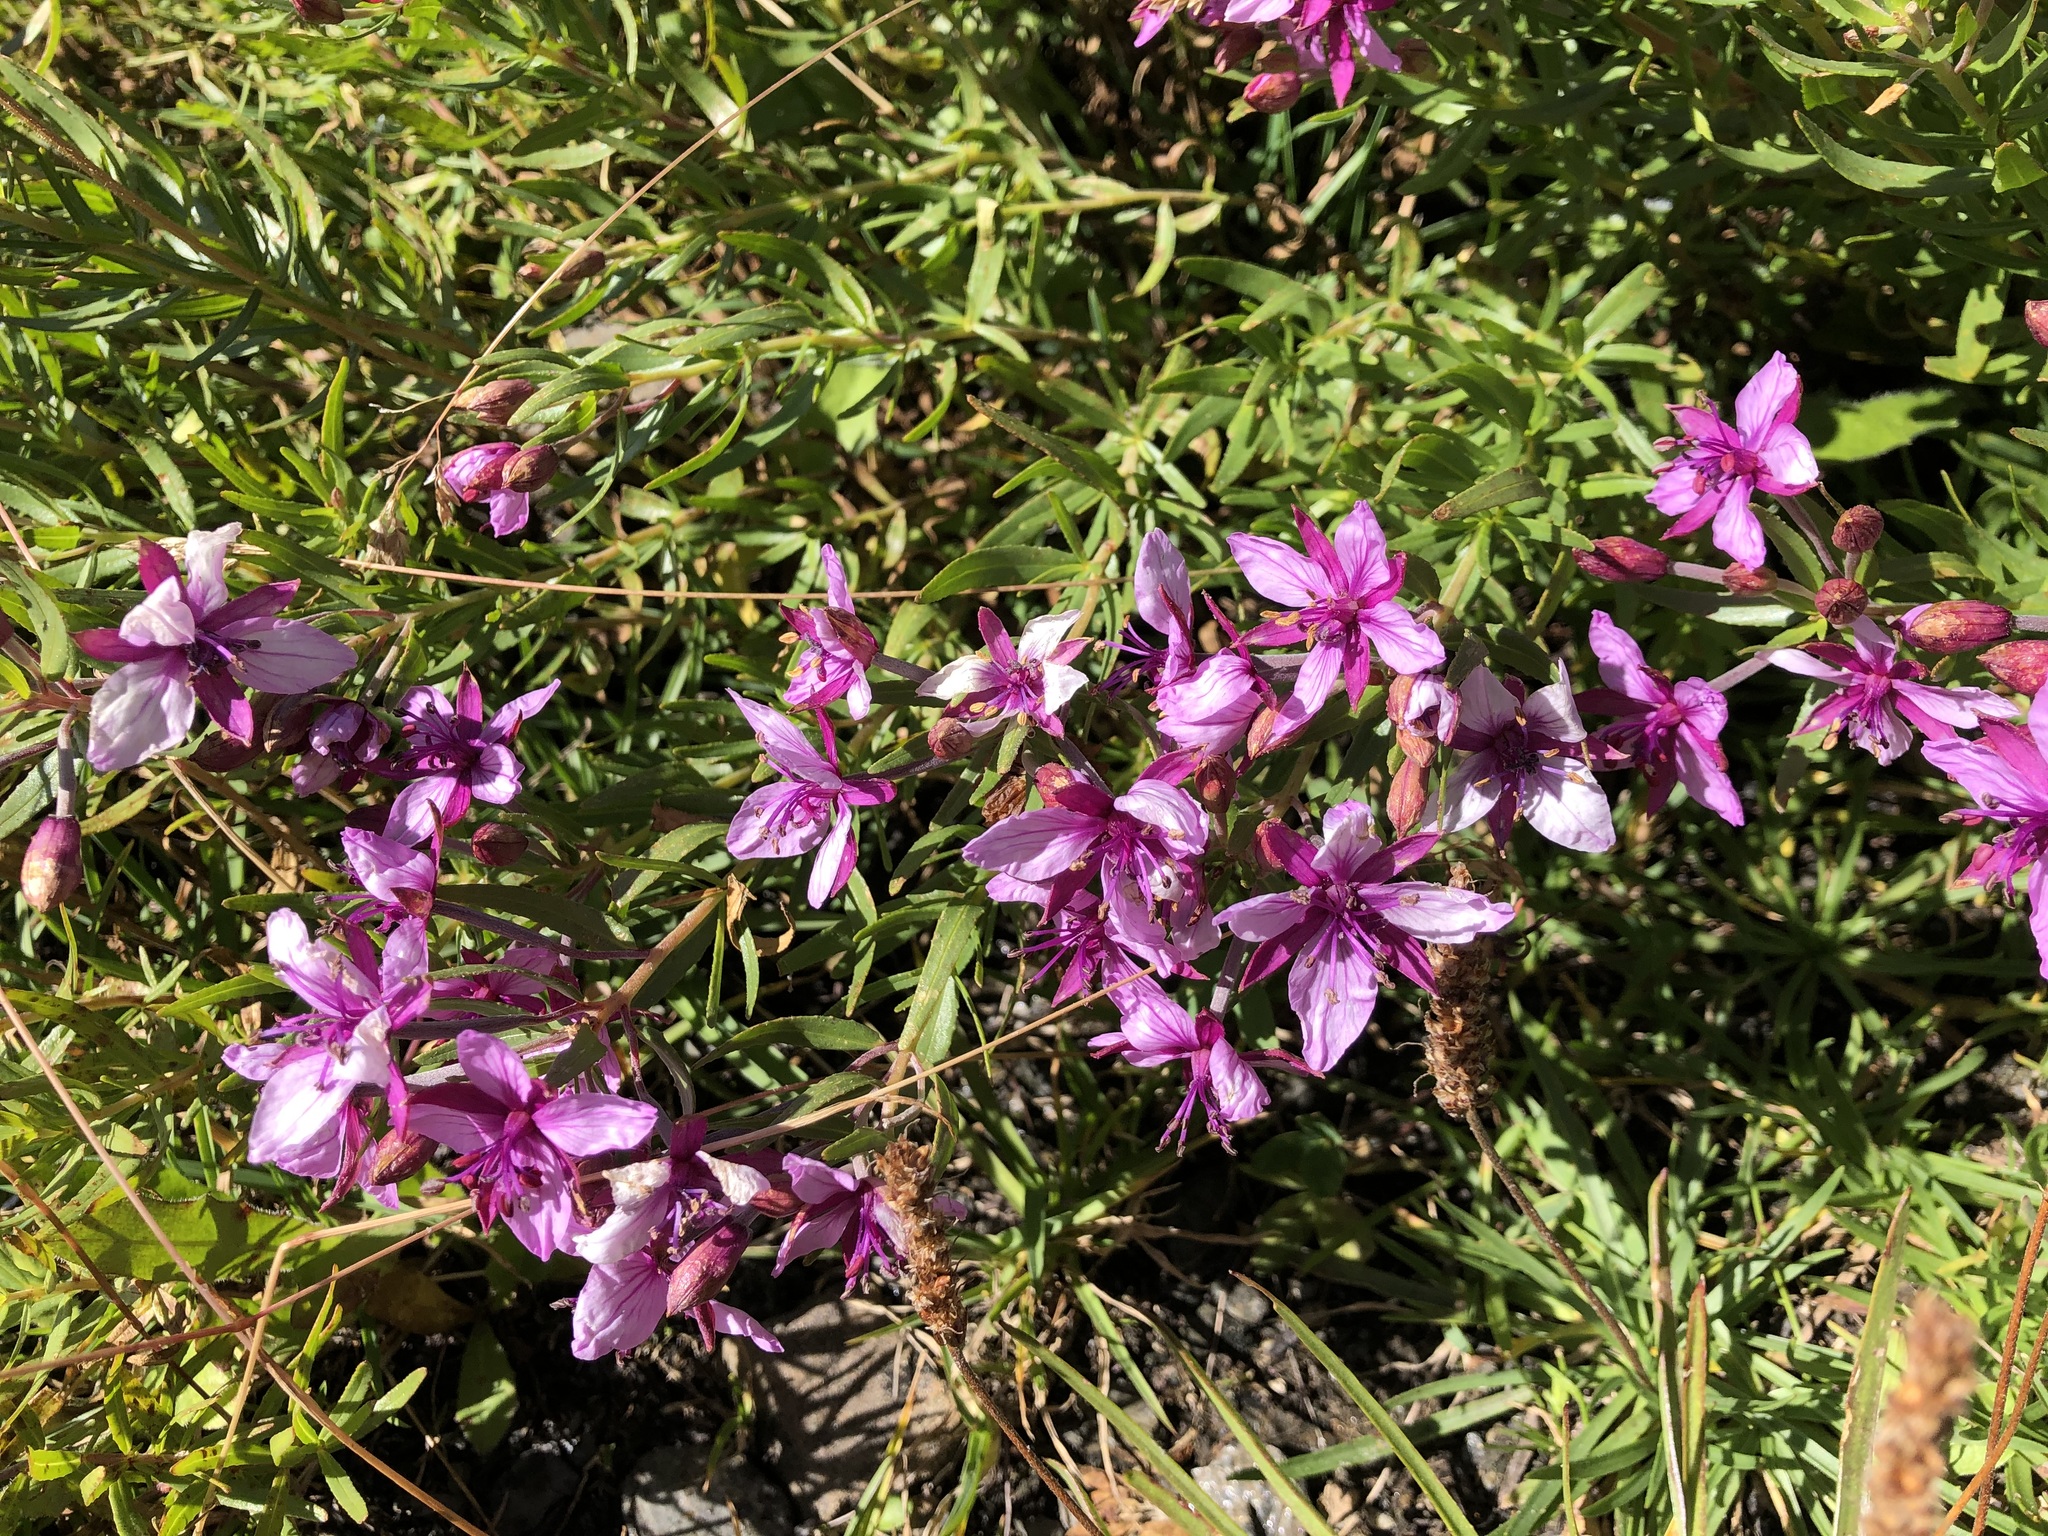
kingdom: Plantae
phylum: Tracheophyta
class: Magnoliopsida
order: Myrtales
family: Onagraceae
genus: Chamaenerion
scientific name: Chamaenerion fleischeri
